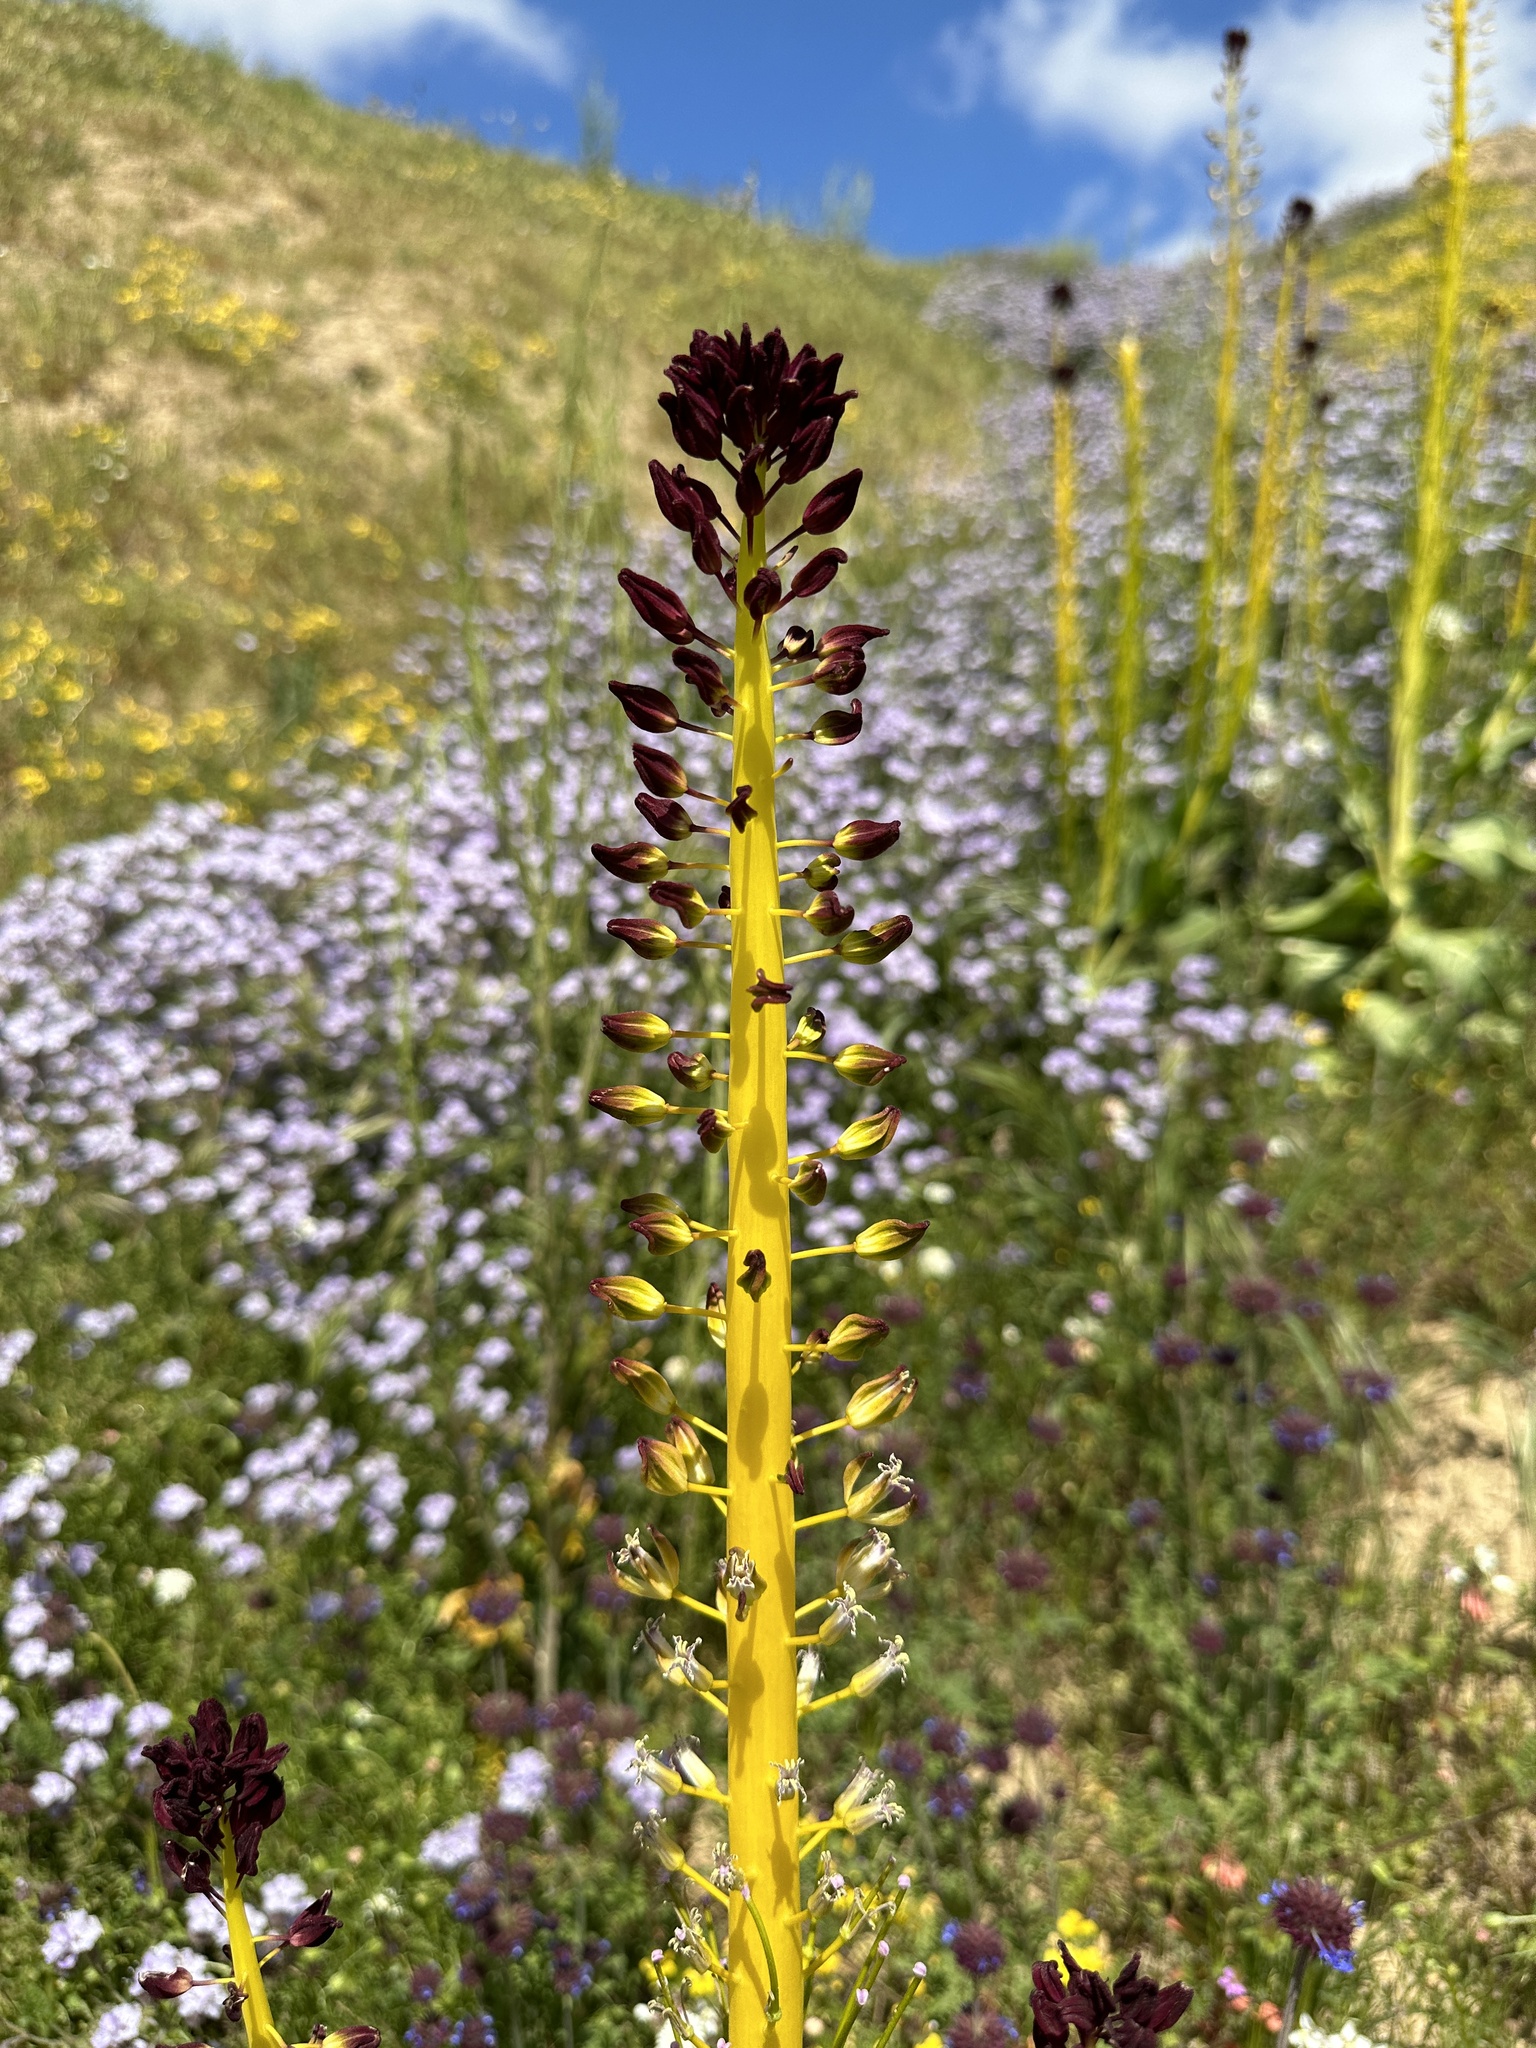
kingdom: Plantae
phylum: Tracheophyta
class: Magnoliopsida
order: Brassicales
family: Brassicaceae
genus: Streptanthus
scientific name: Streptanthus inflatus
